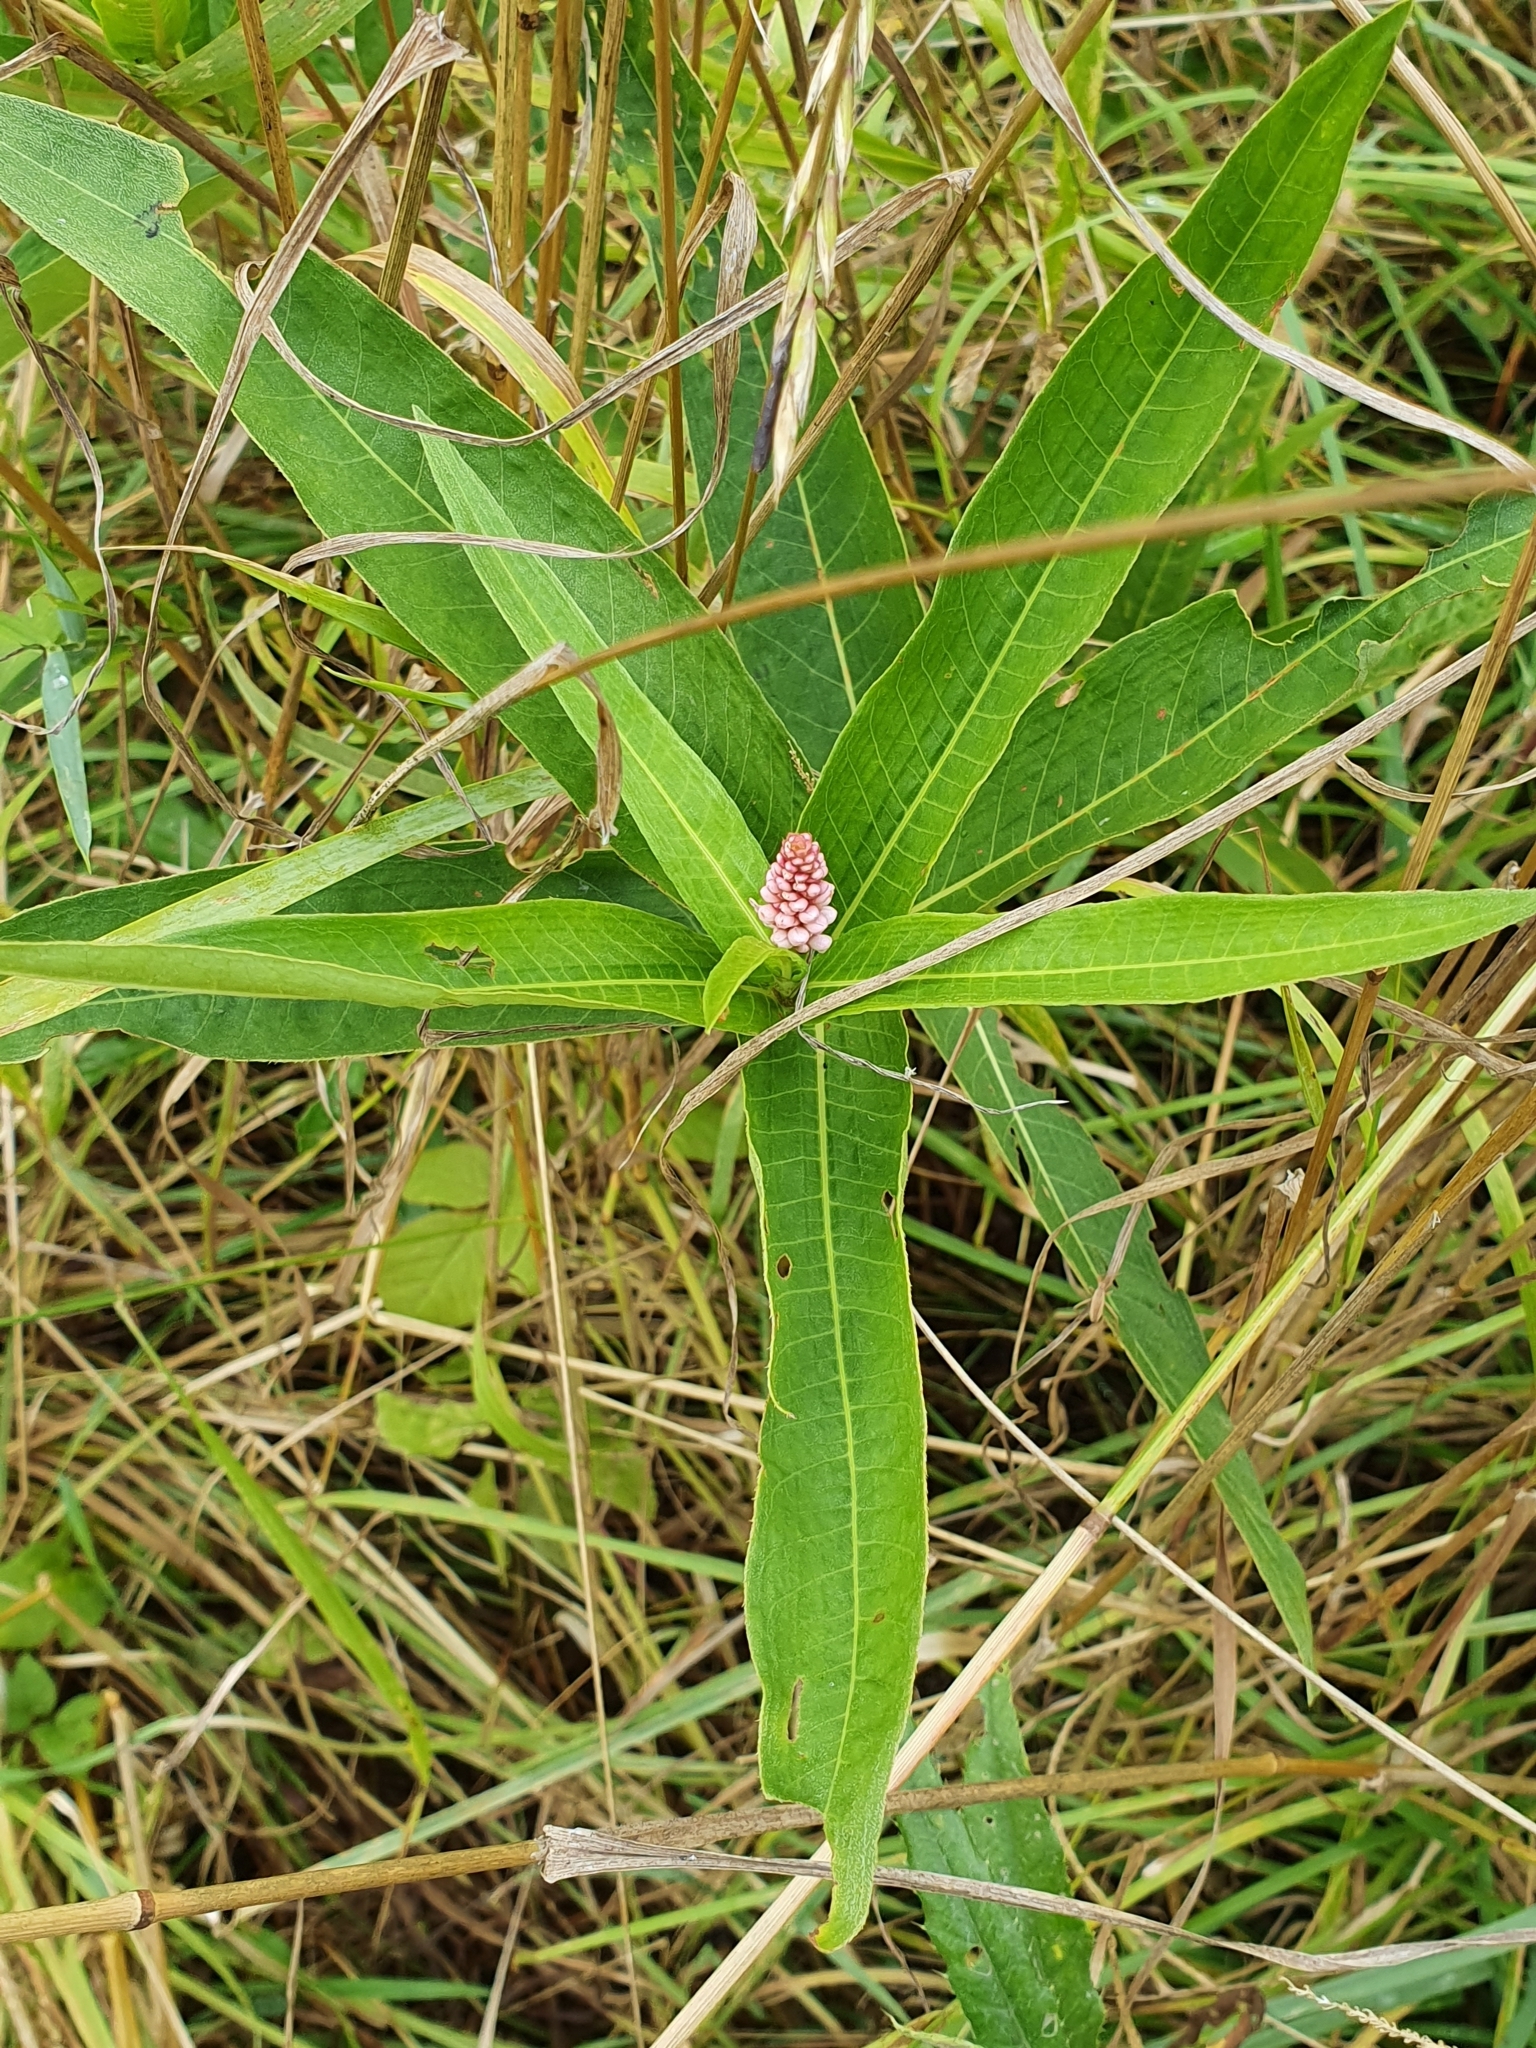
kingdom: Plantae
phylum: Tracheophyta
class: Magnoliopsida
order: Caryophyllales
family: Polygonaceae
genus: Persicaria
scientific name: Persicaria amphibia
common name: Amphibious bistort
